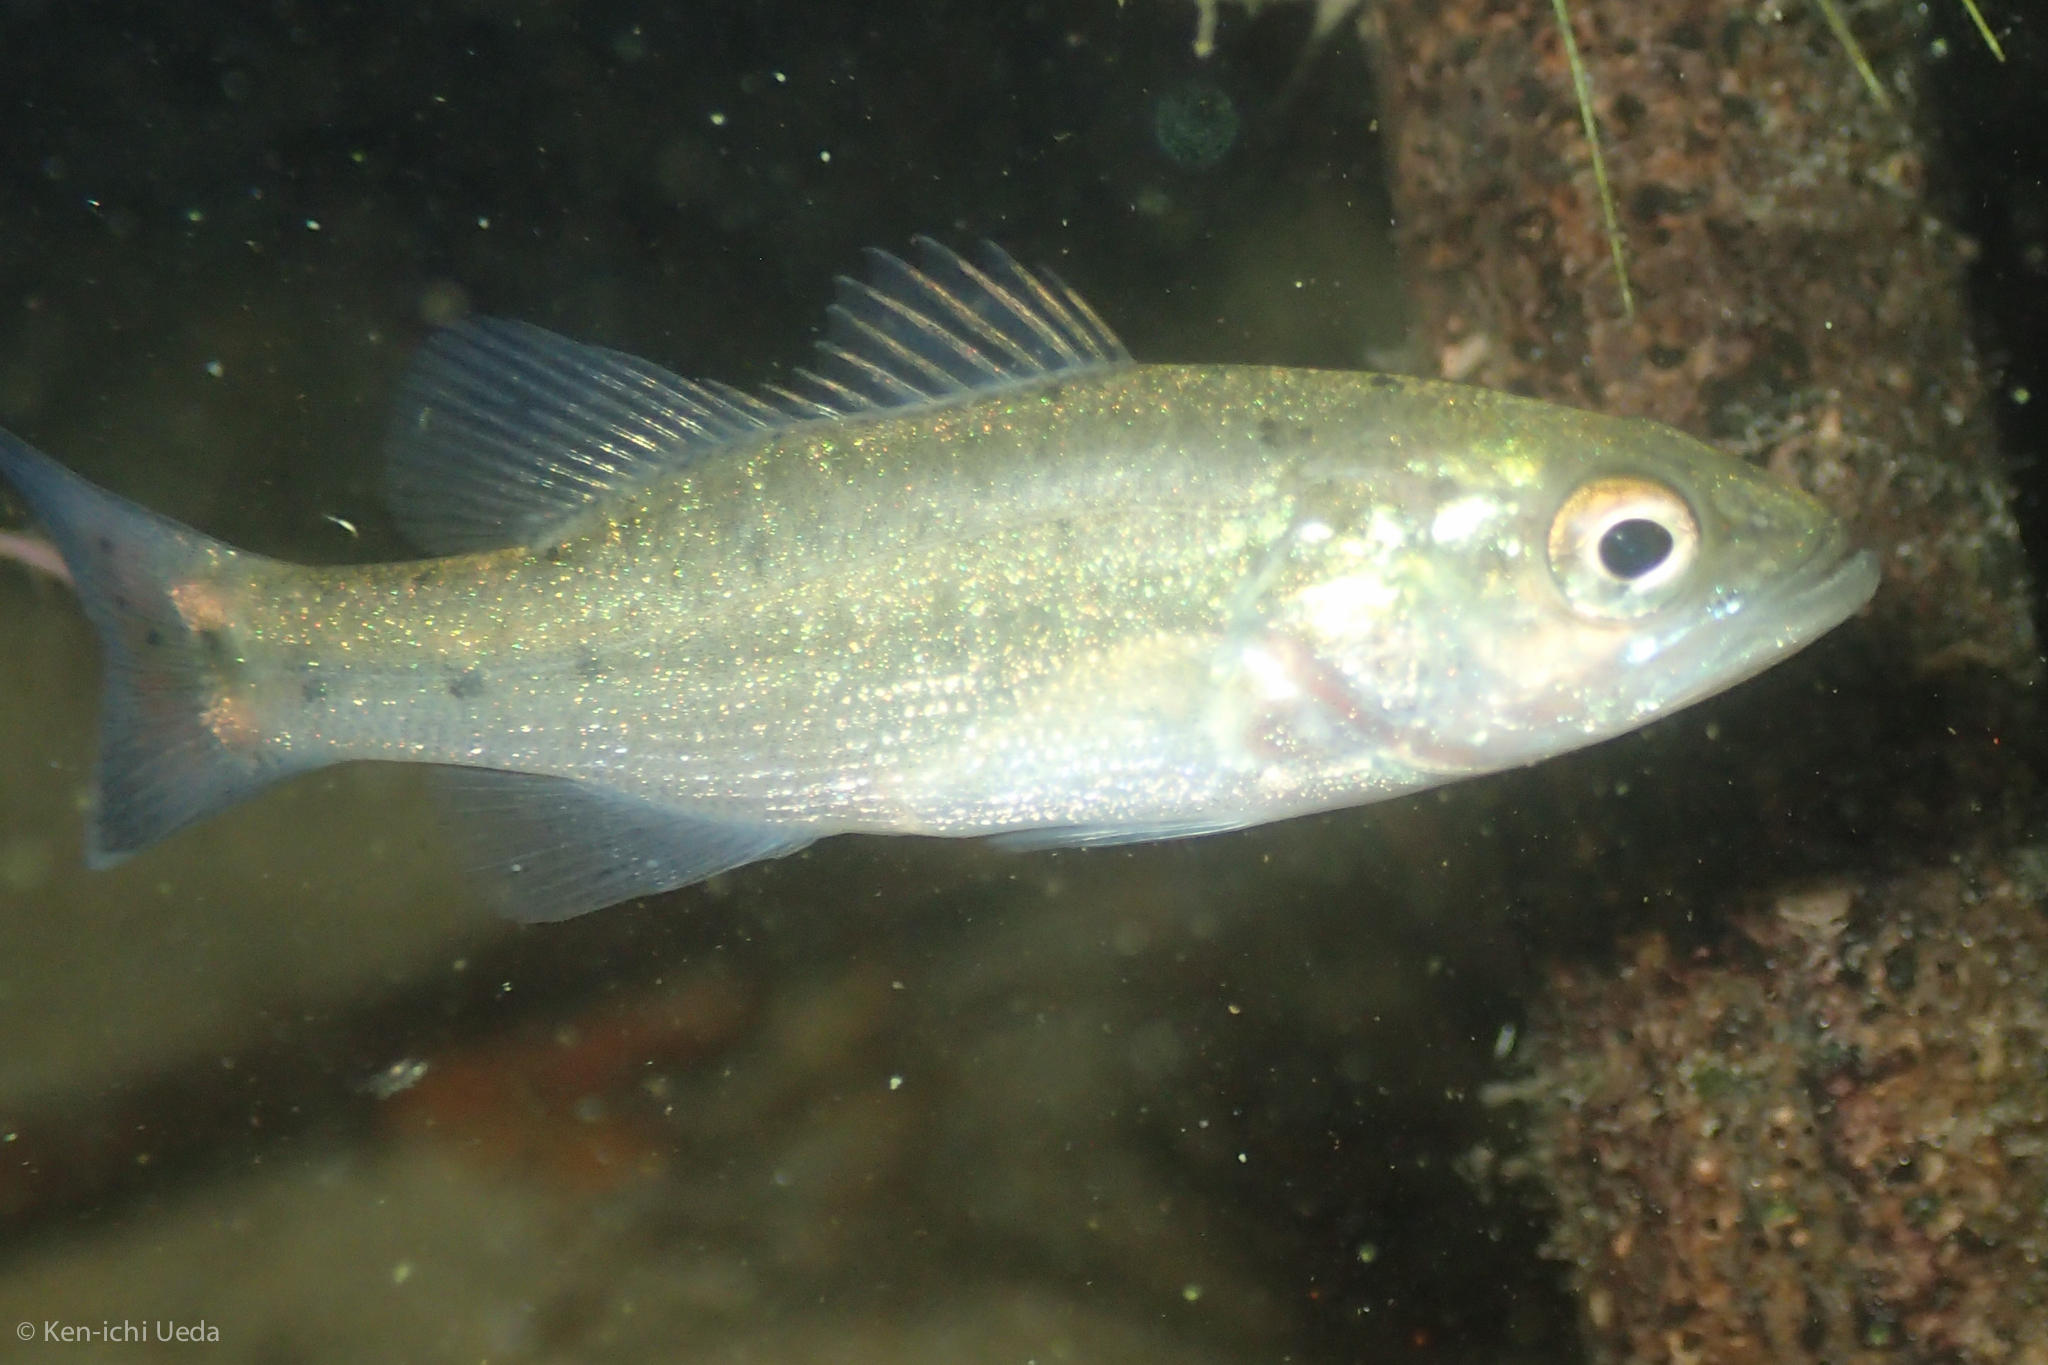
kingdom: Animalia
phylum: Chordata
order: Perciformes
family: Centrarchidae
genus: Micropterus
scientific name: Micropterus
